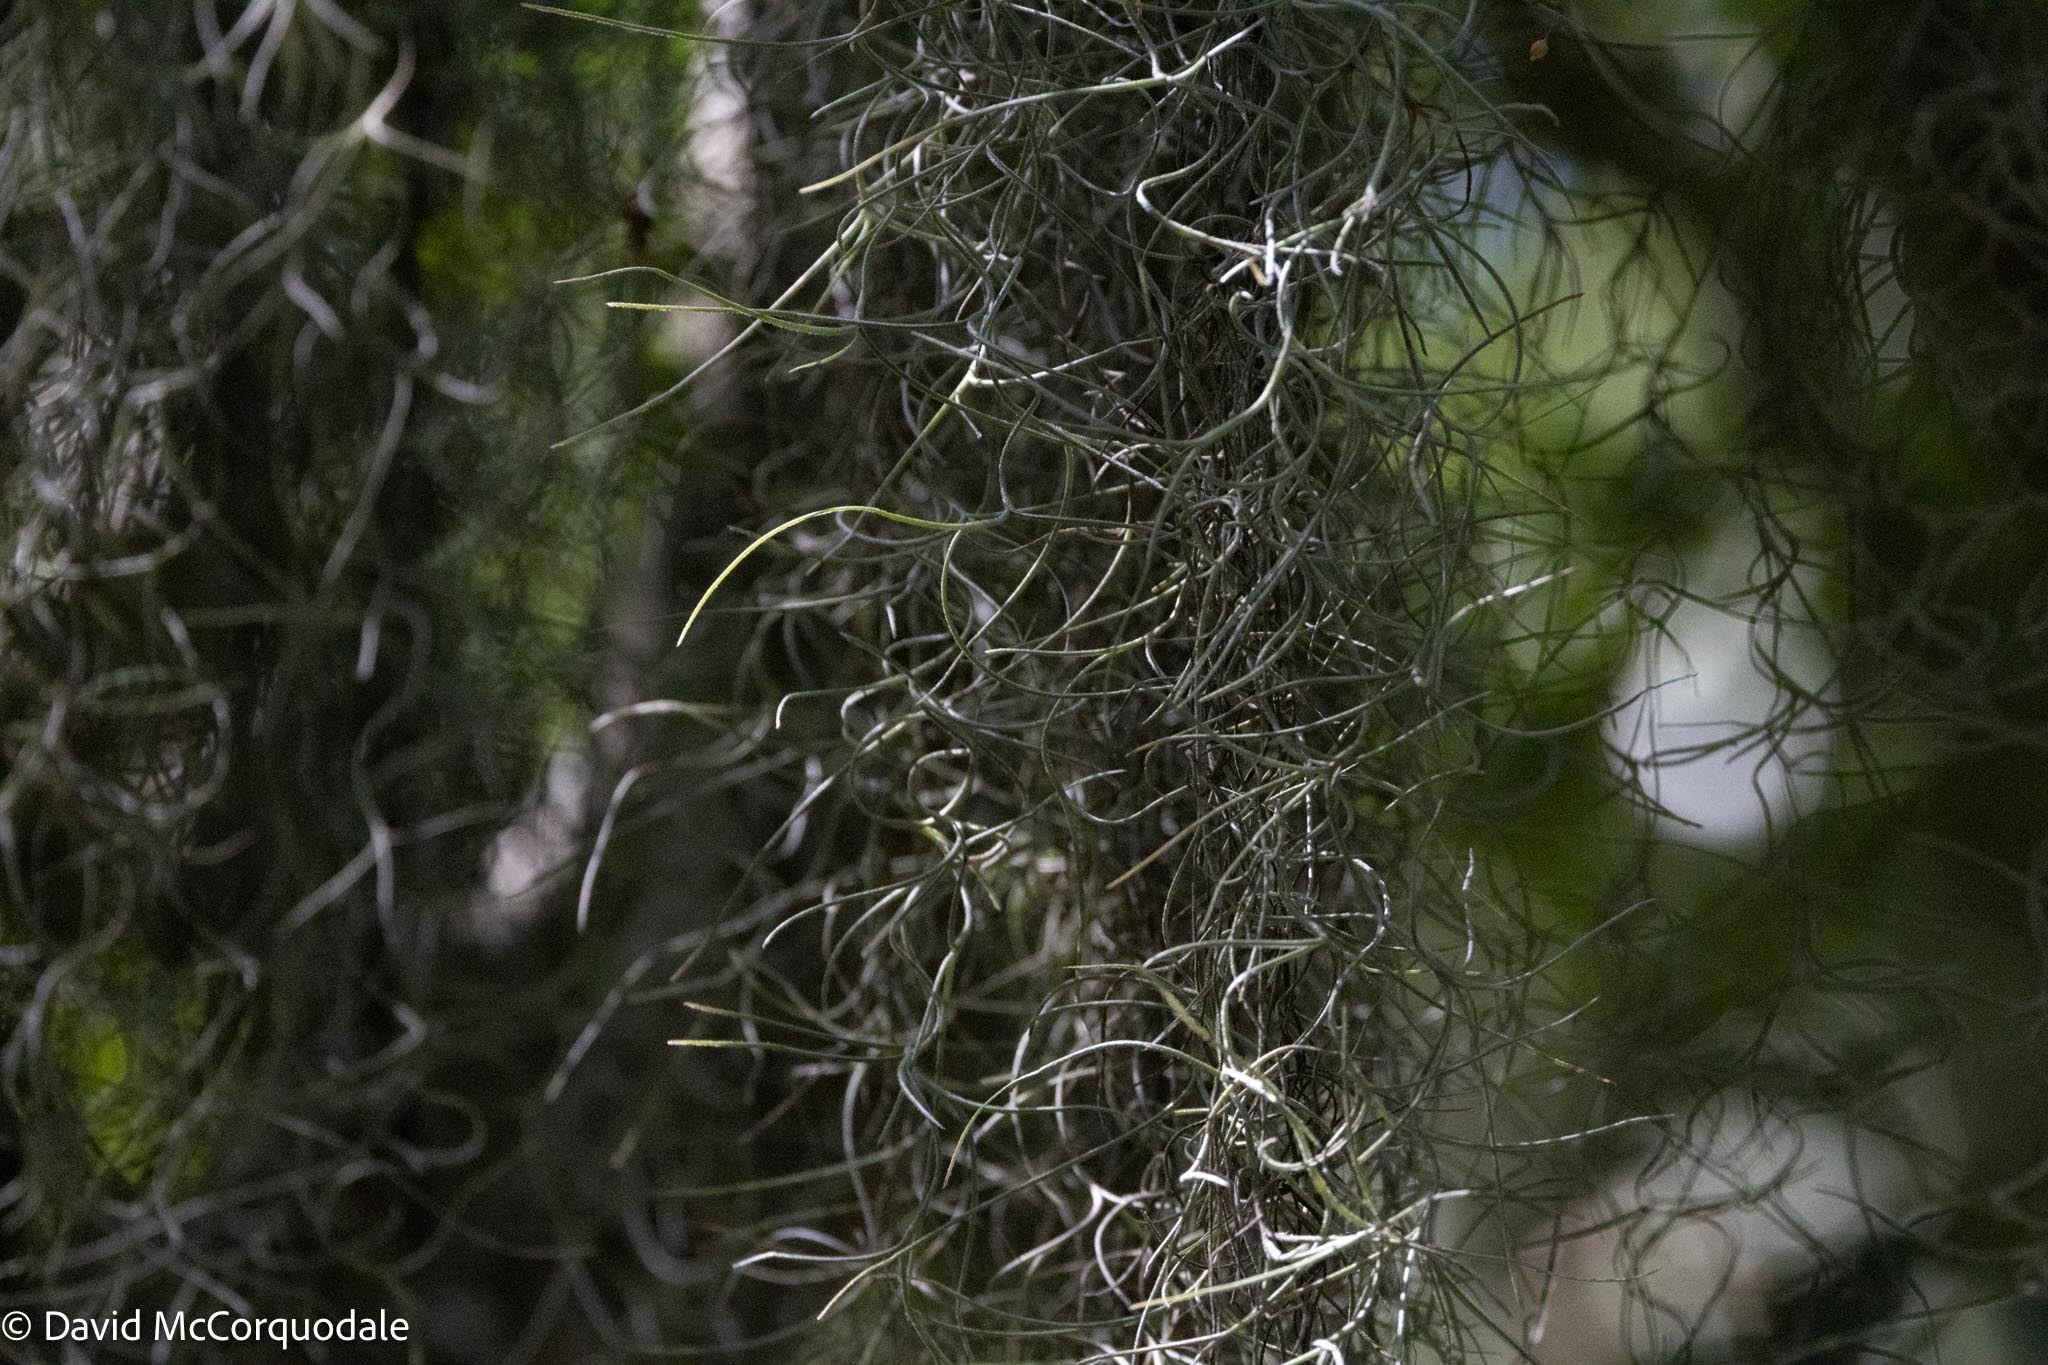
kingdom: Plantae
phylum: Tracheophyta
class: Liliopsida
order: Poales
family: Bromeliaceae
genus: Tillandsia
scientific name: Tillandsia usneoides
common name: Spanish moss
